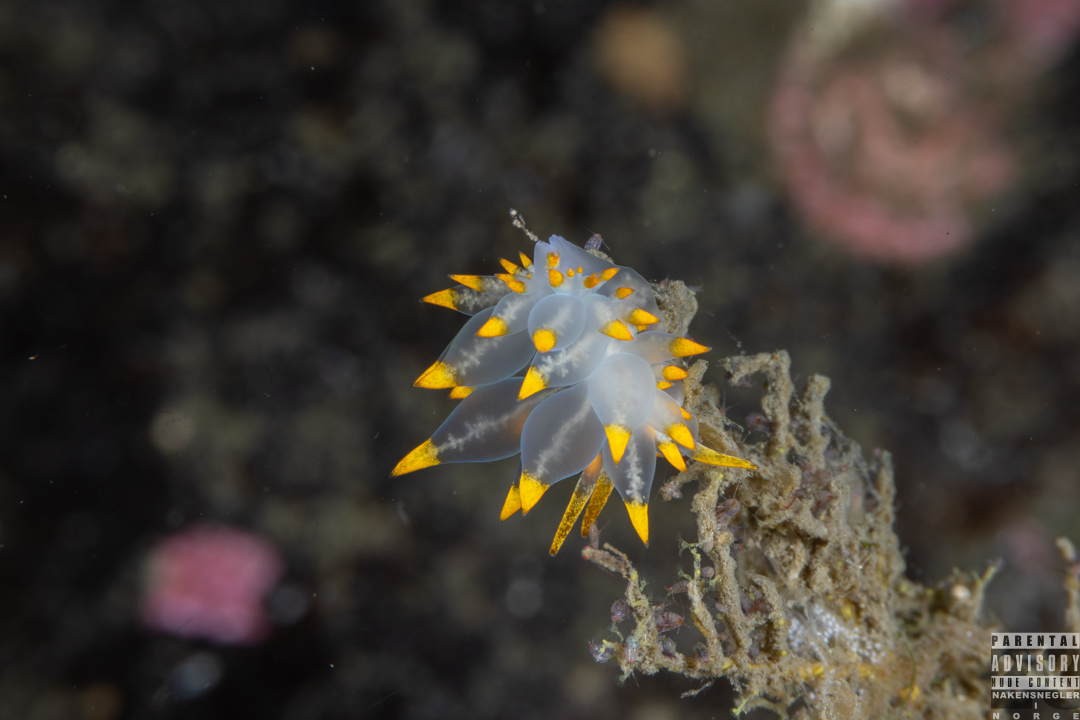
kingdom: Animalia
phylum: Mollusca
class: Gastropoda
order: Nudibranchia
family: Eubranchidae
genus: Amphorina
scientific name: Amphorina farrani
